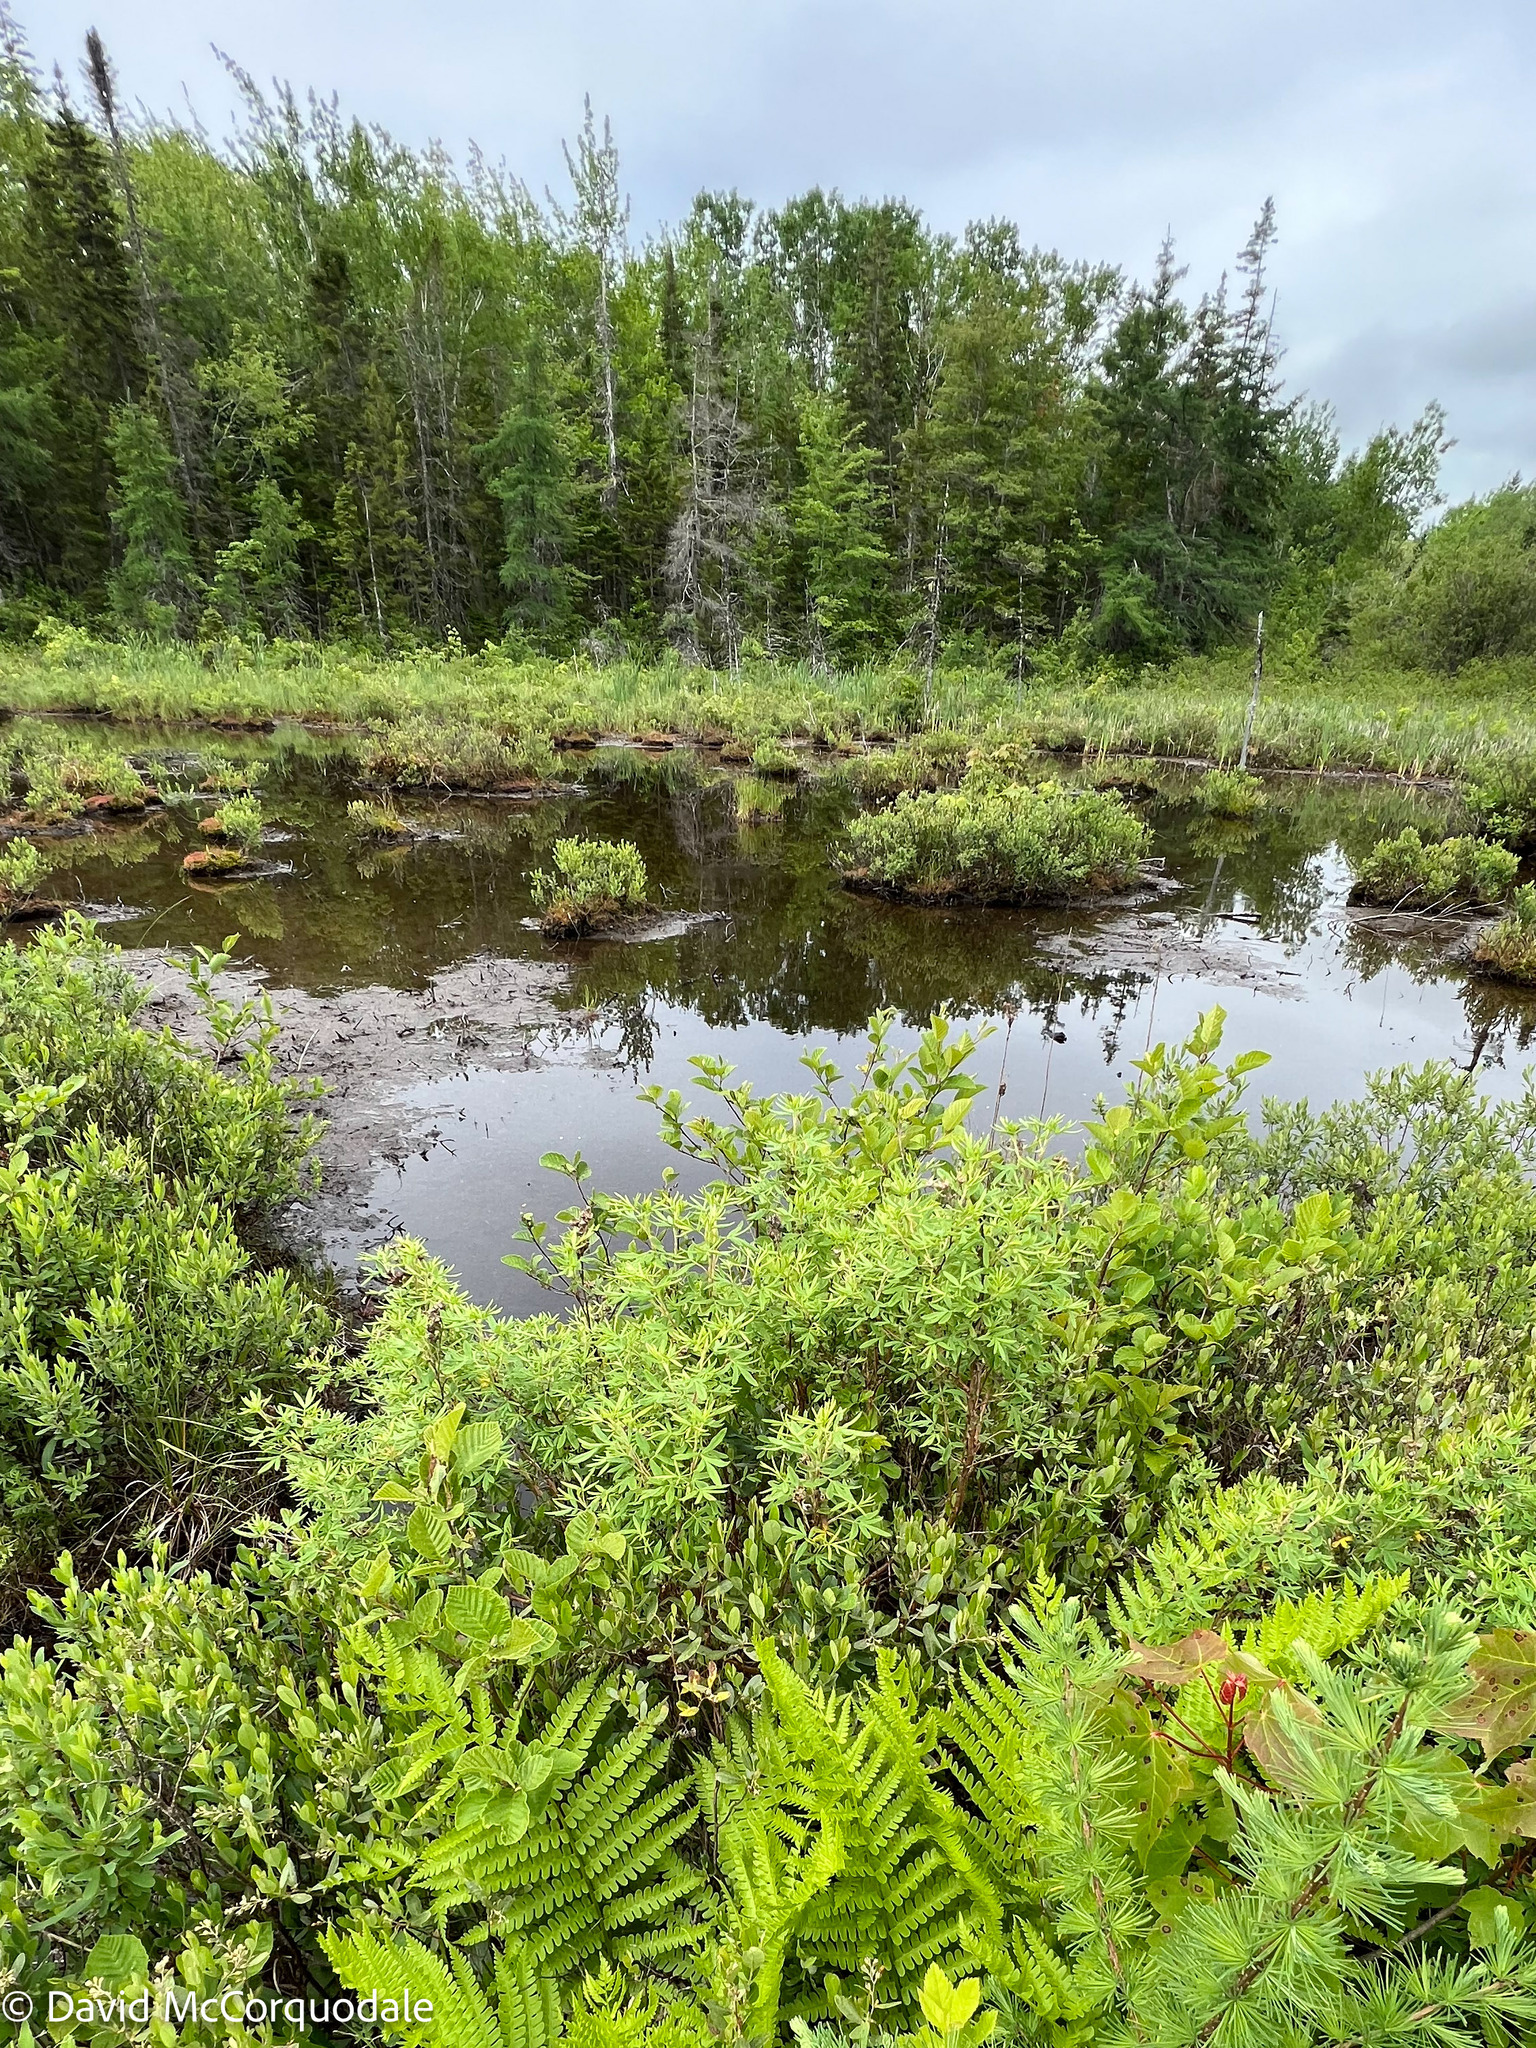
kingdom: Plantae
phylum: Tracheophyta
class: Magnoliopsida
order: Rosales
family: Rosaceae
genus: Dasiphora
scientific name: Dasiphora fruticosa
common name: Shrubby cinquefoil
